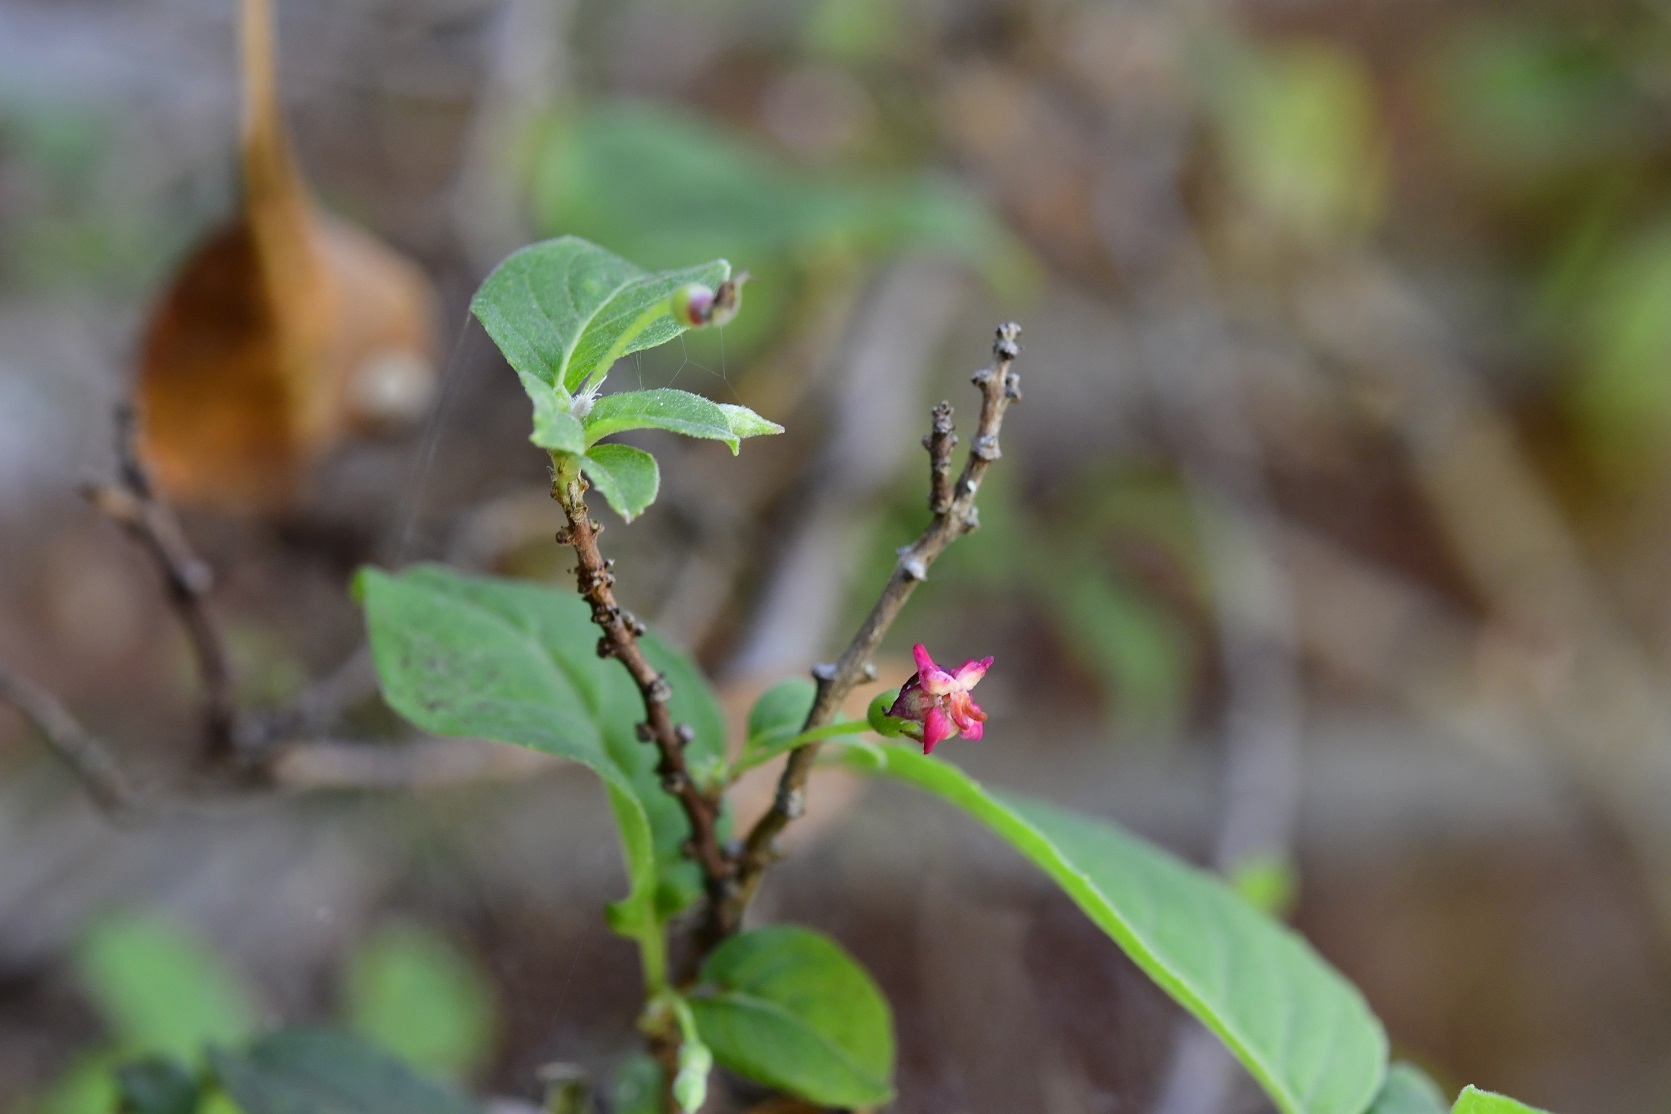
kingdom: Plantae
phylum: Tracheophyta
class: Magnoliopsida
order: Myrtales
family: Onagraceae
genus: Fuchsia
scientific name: Fuchsia encliandra
